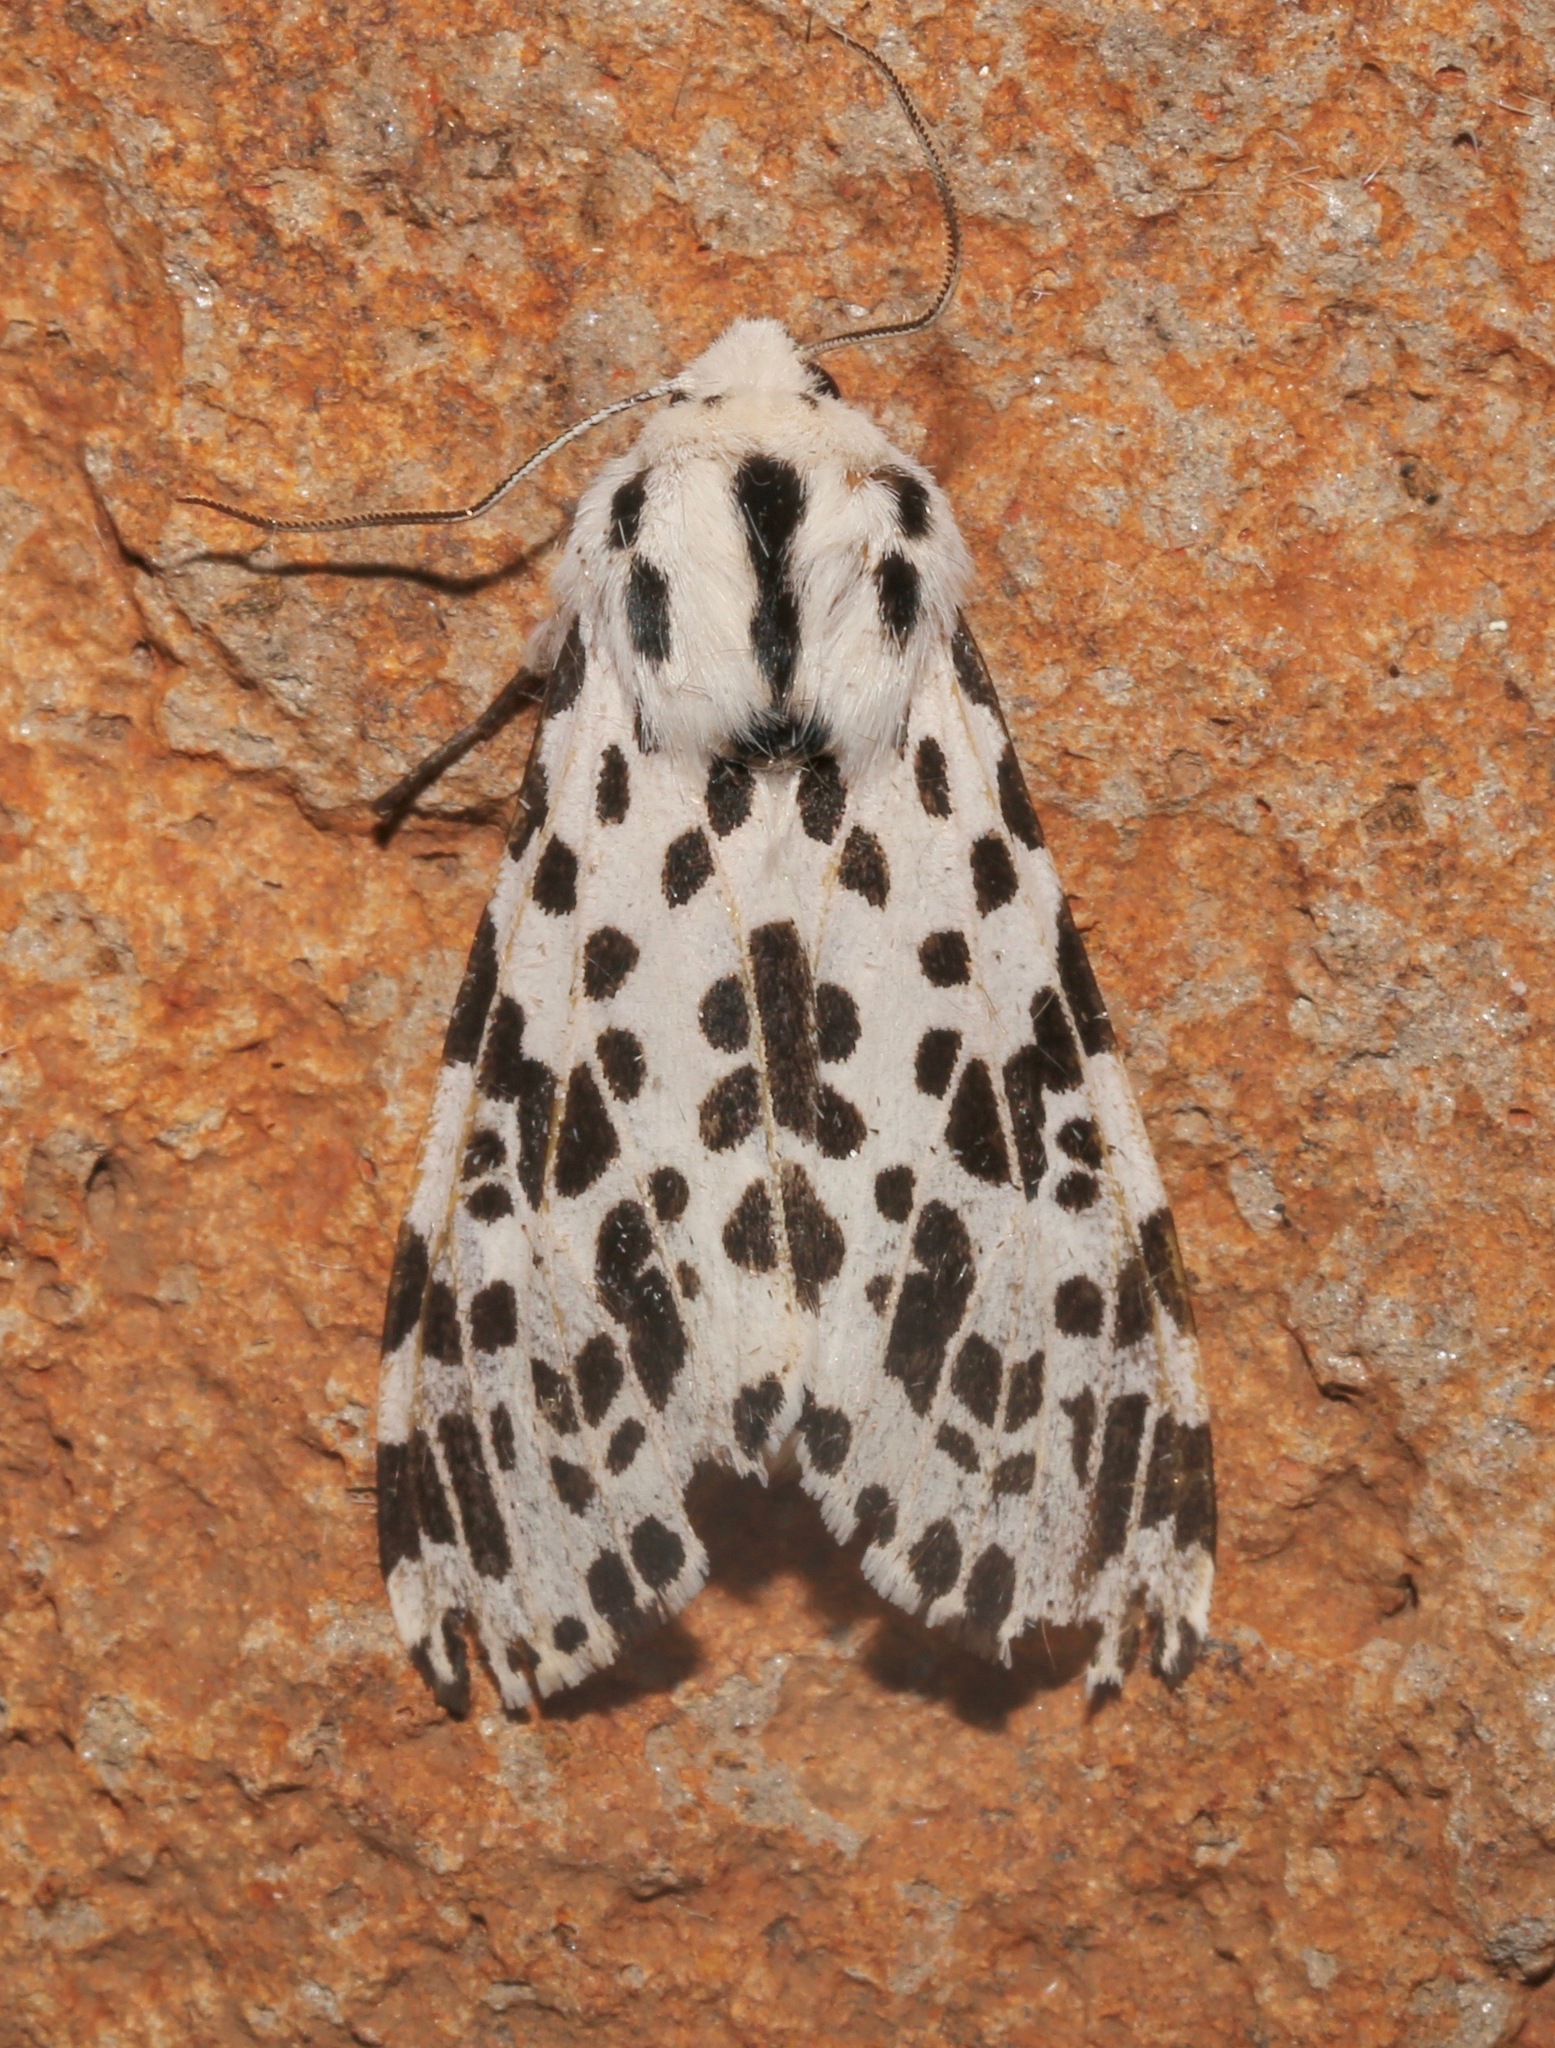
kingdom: Animalia
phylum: Arthropoda
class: Insecta
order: Lepidoptera
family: Erebidae
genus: Hypercompe
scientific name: Hypercompe permaculata
